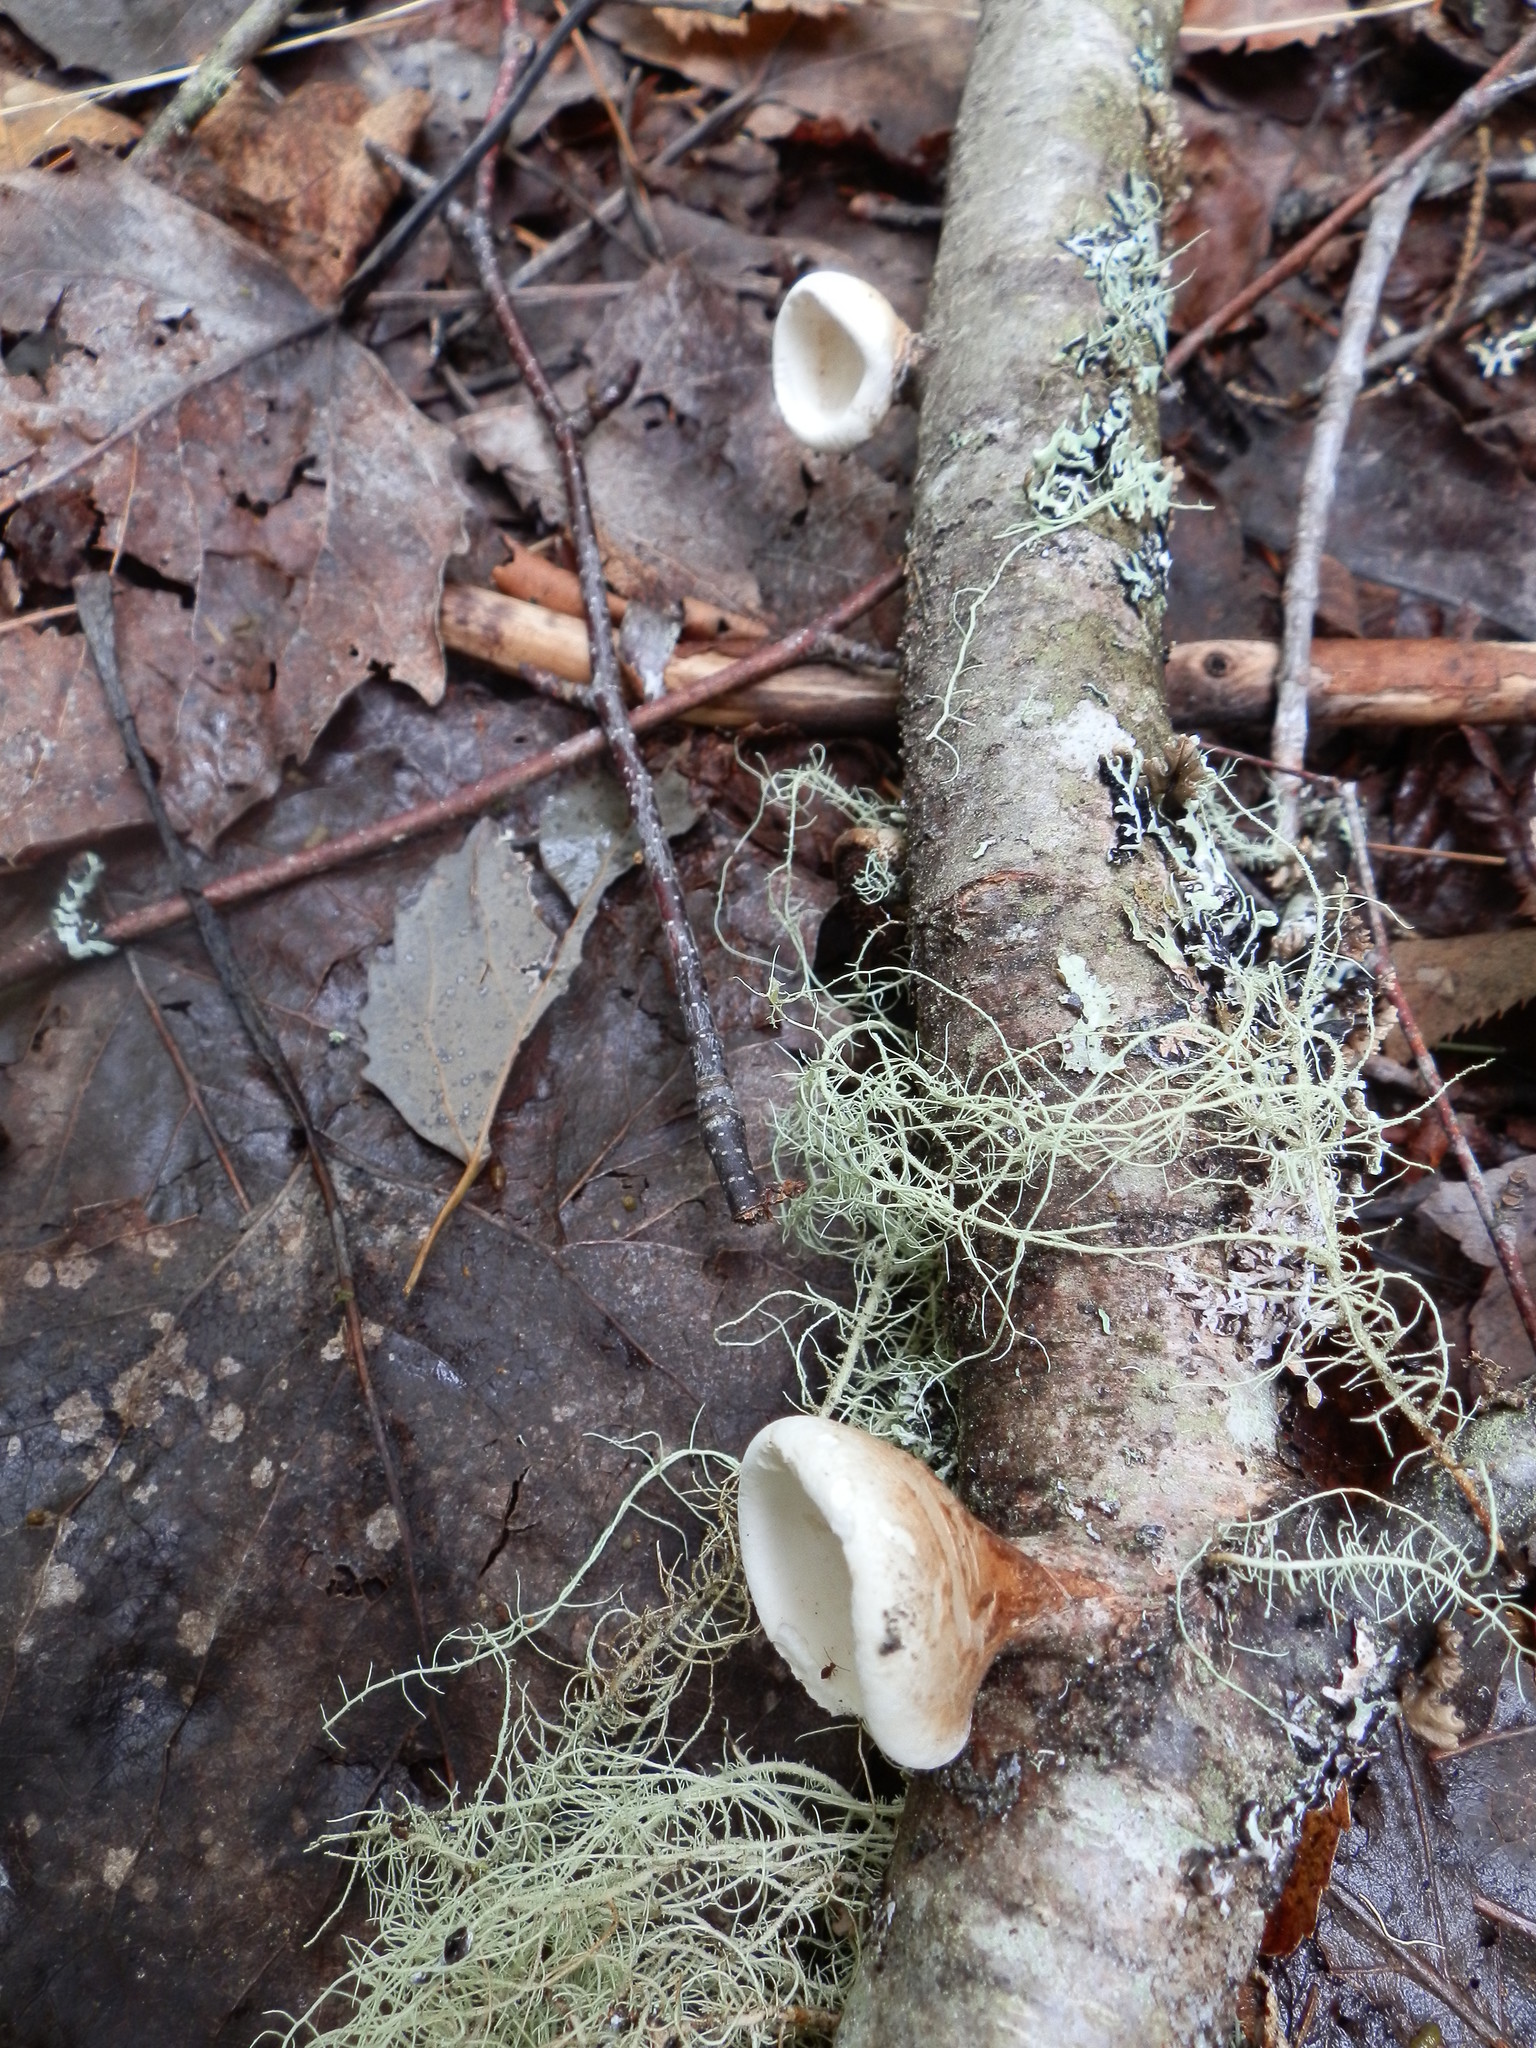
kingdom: Fungi
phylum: Basidiomycota
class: Agaricomycetes
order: Polyporales
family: Fomitopsidaceae
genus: Fomitopsis
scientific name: Fomitopsis betulina
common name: Birch polypore
